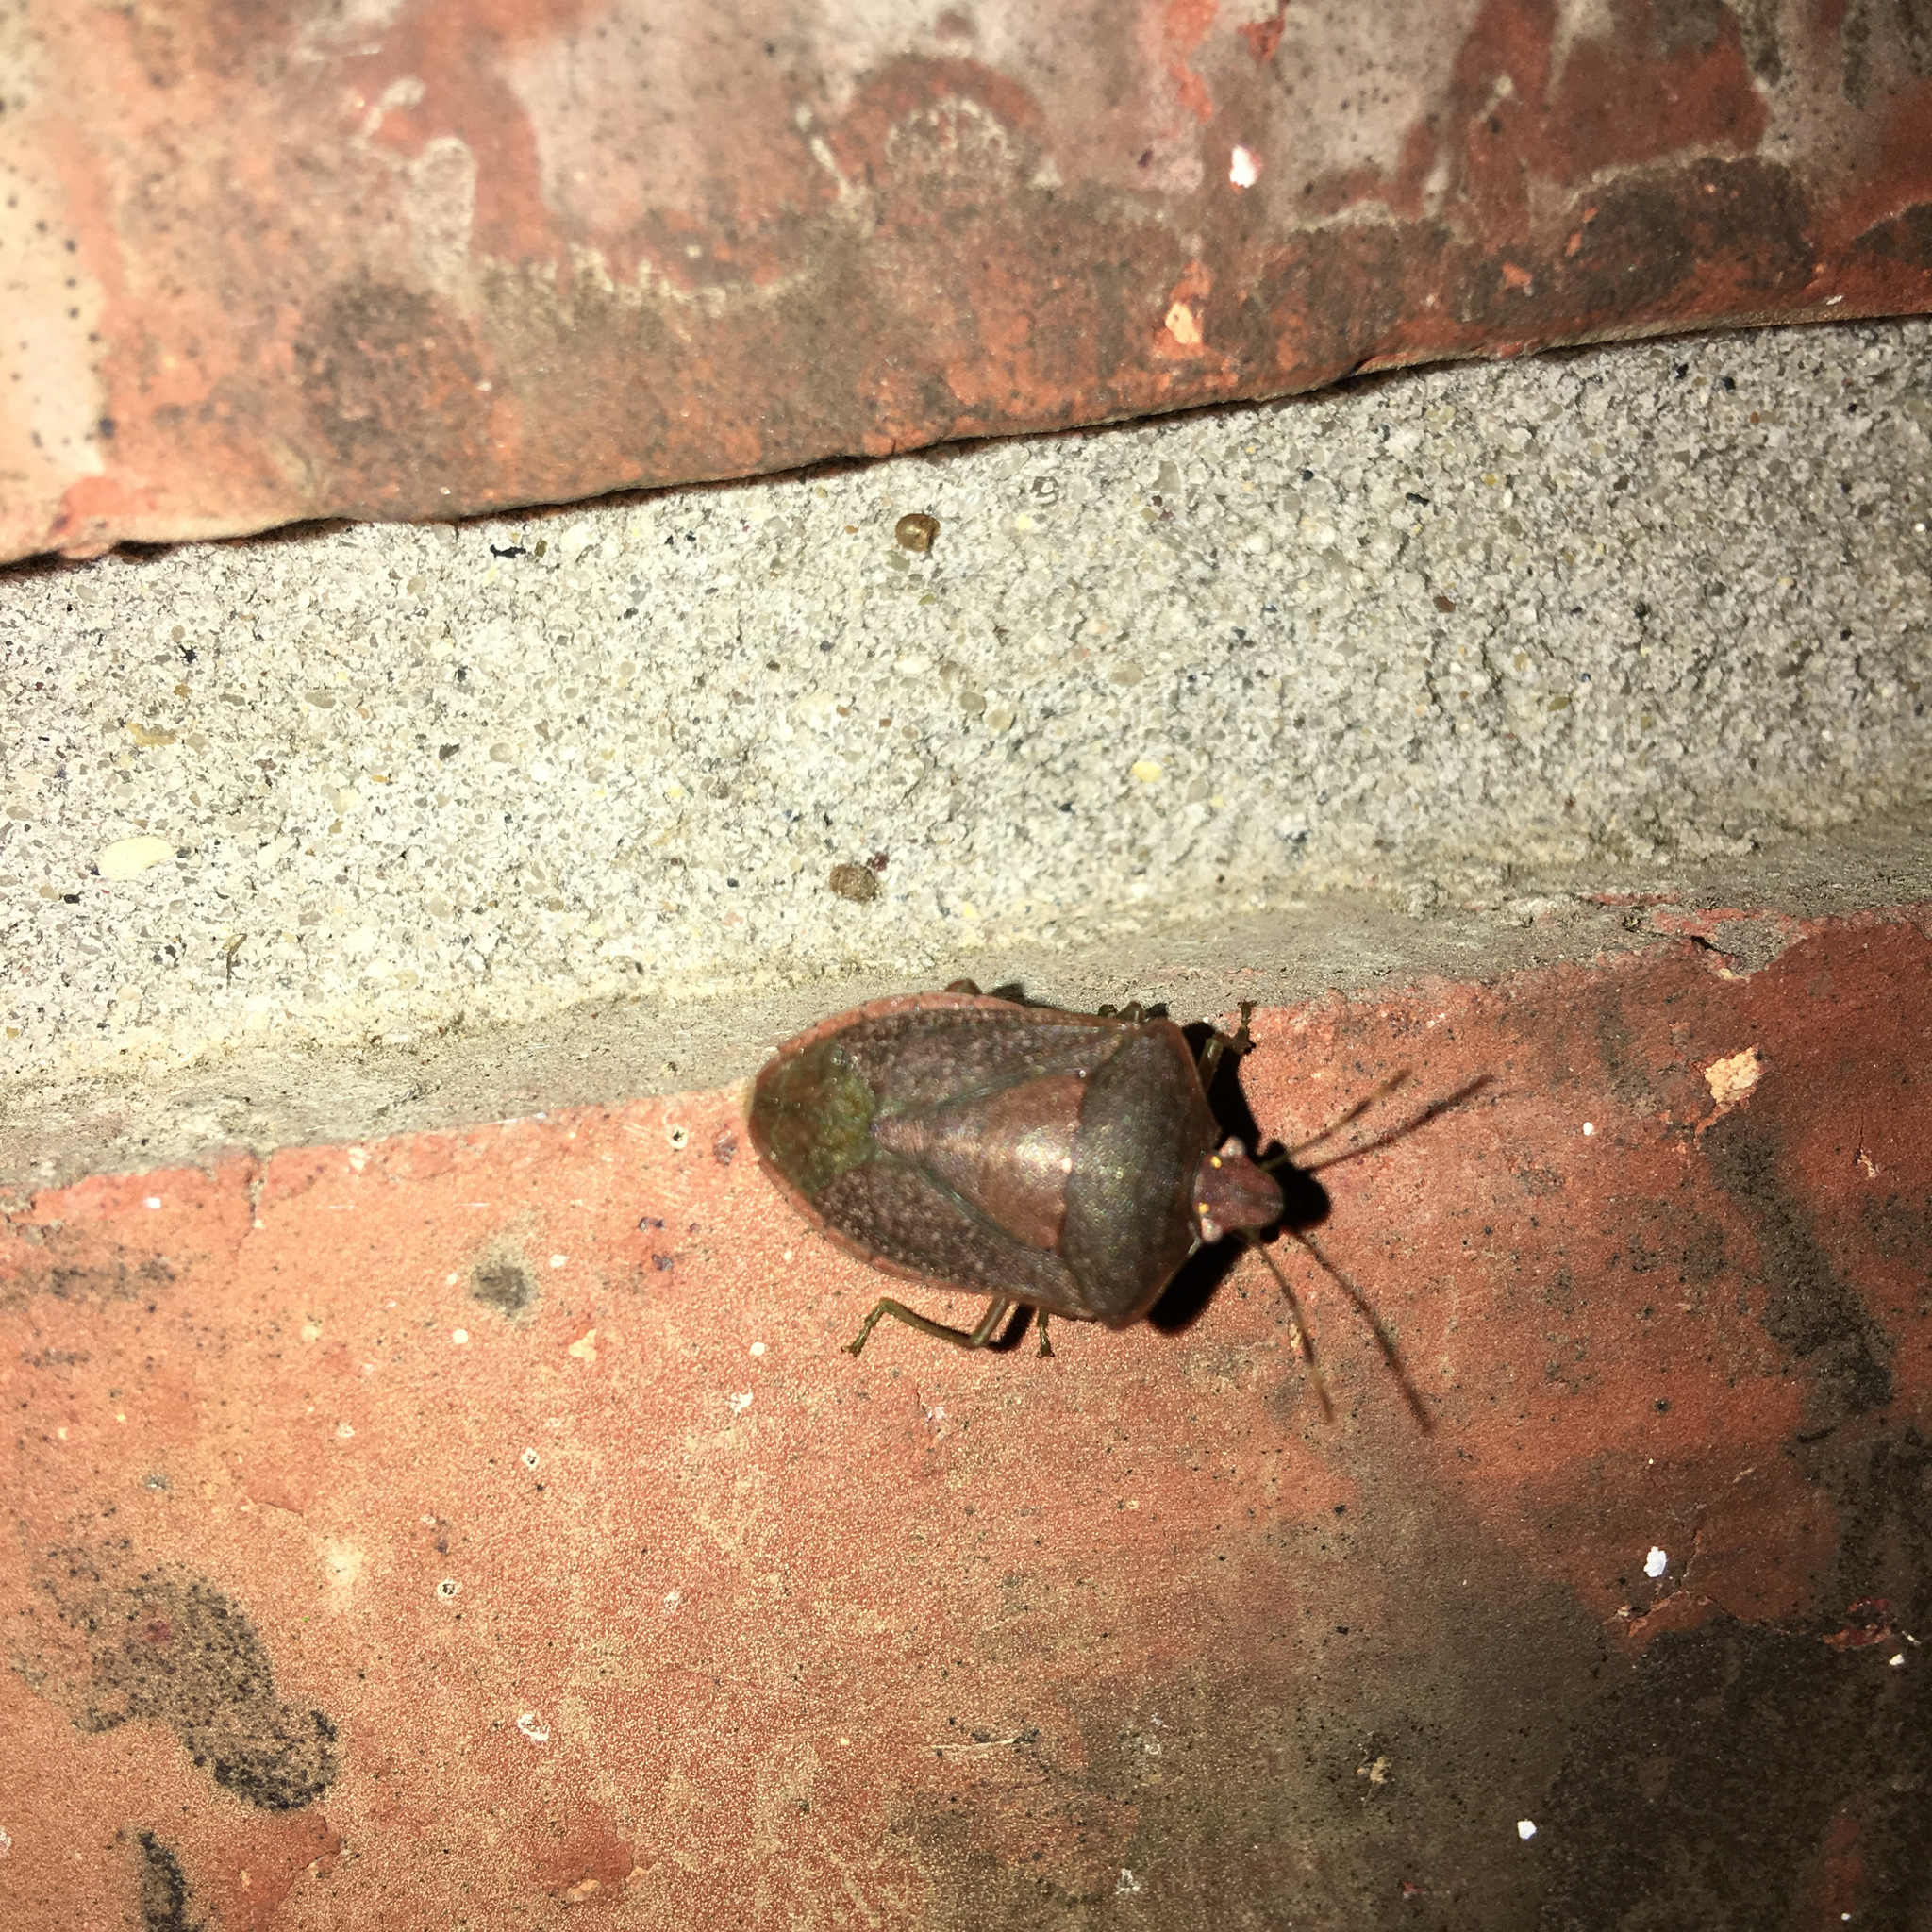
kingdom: Animalia
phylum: Arthropoda
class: Insecta
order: Hemiptera
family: Pentatomidae
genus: Nezara
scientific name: Nezara viridula
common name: Southern green stink bug
